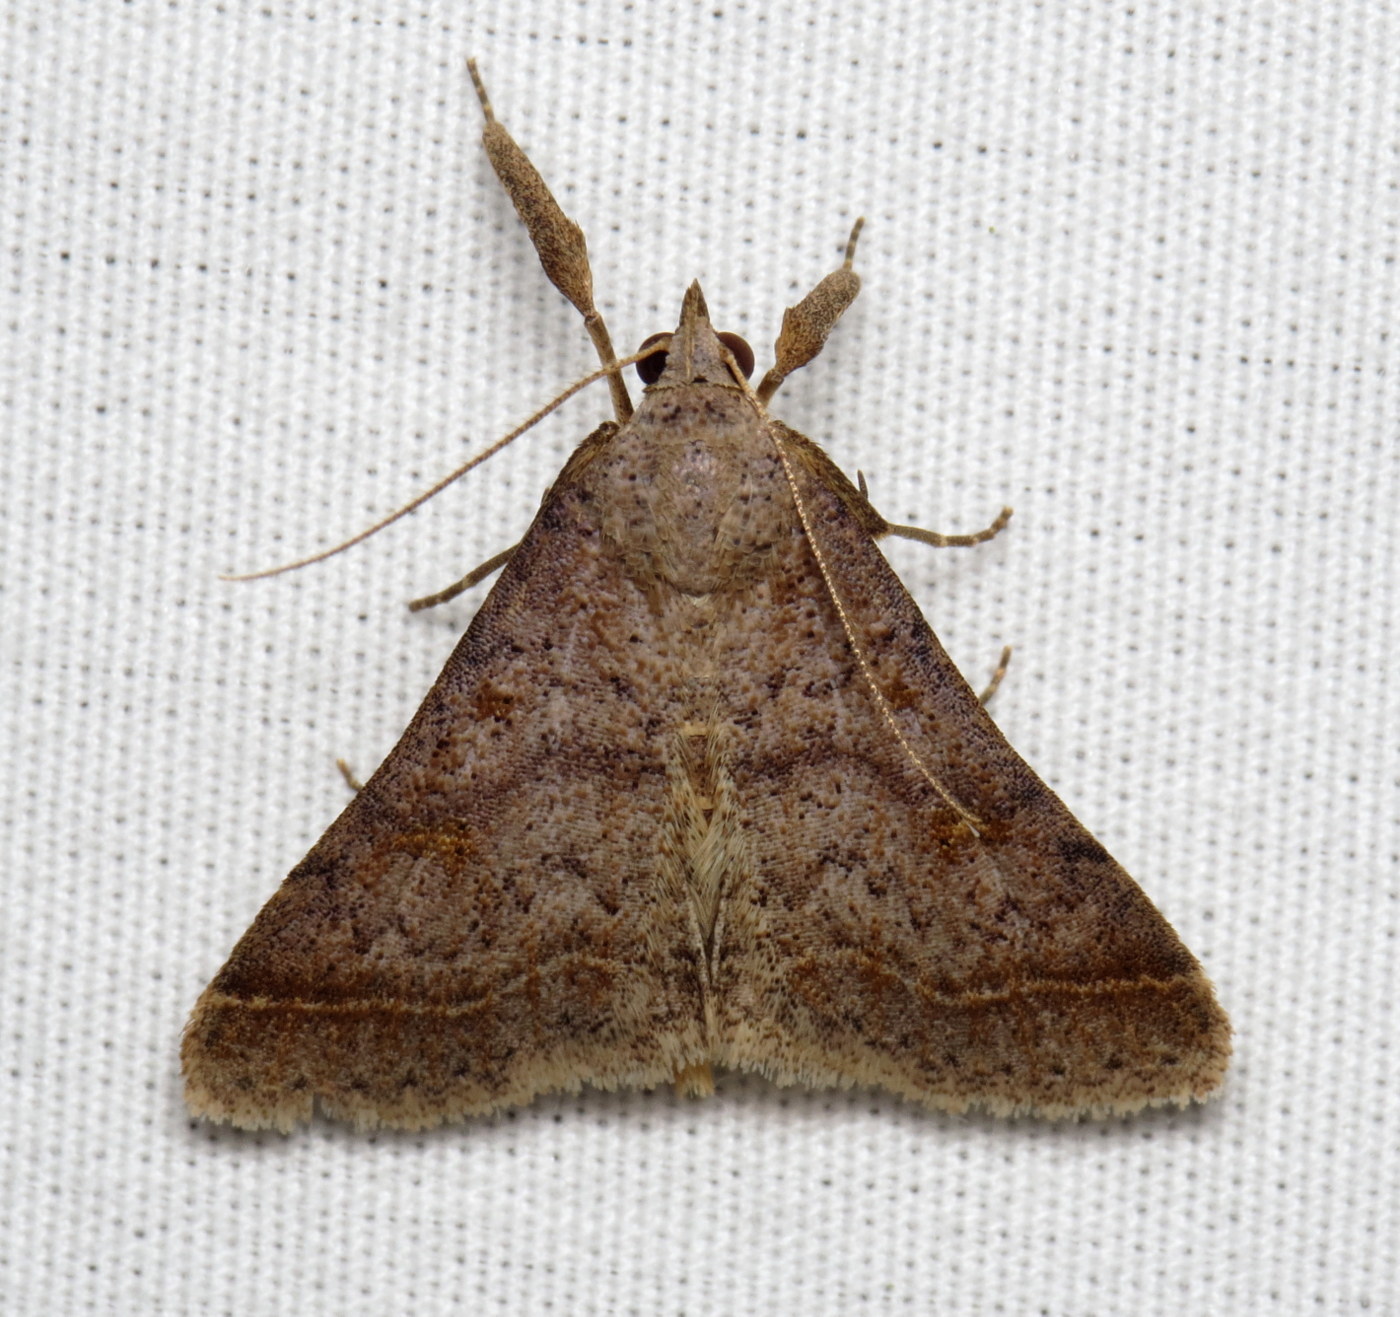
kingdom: Animalia
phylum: Arthropoda
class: Insecta
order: Lepidoptera
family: Erebidae
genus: Bleptina
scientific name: Bleptina caradrinalis
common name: Bent-winged owlet
